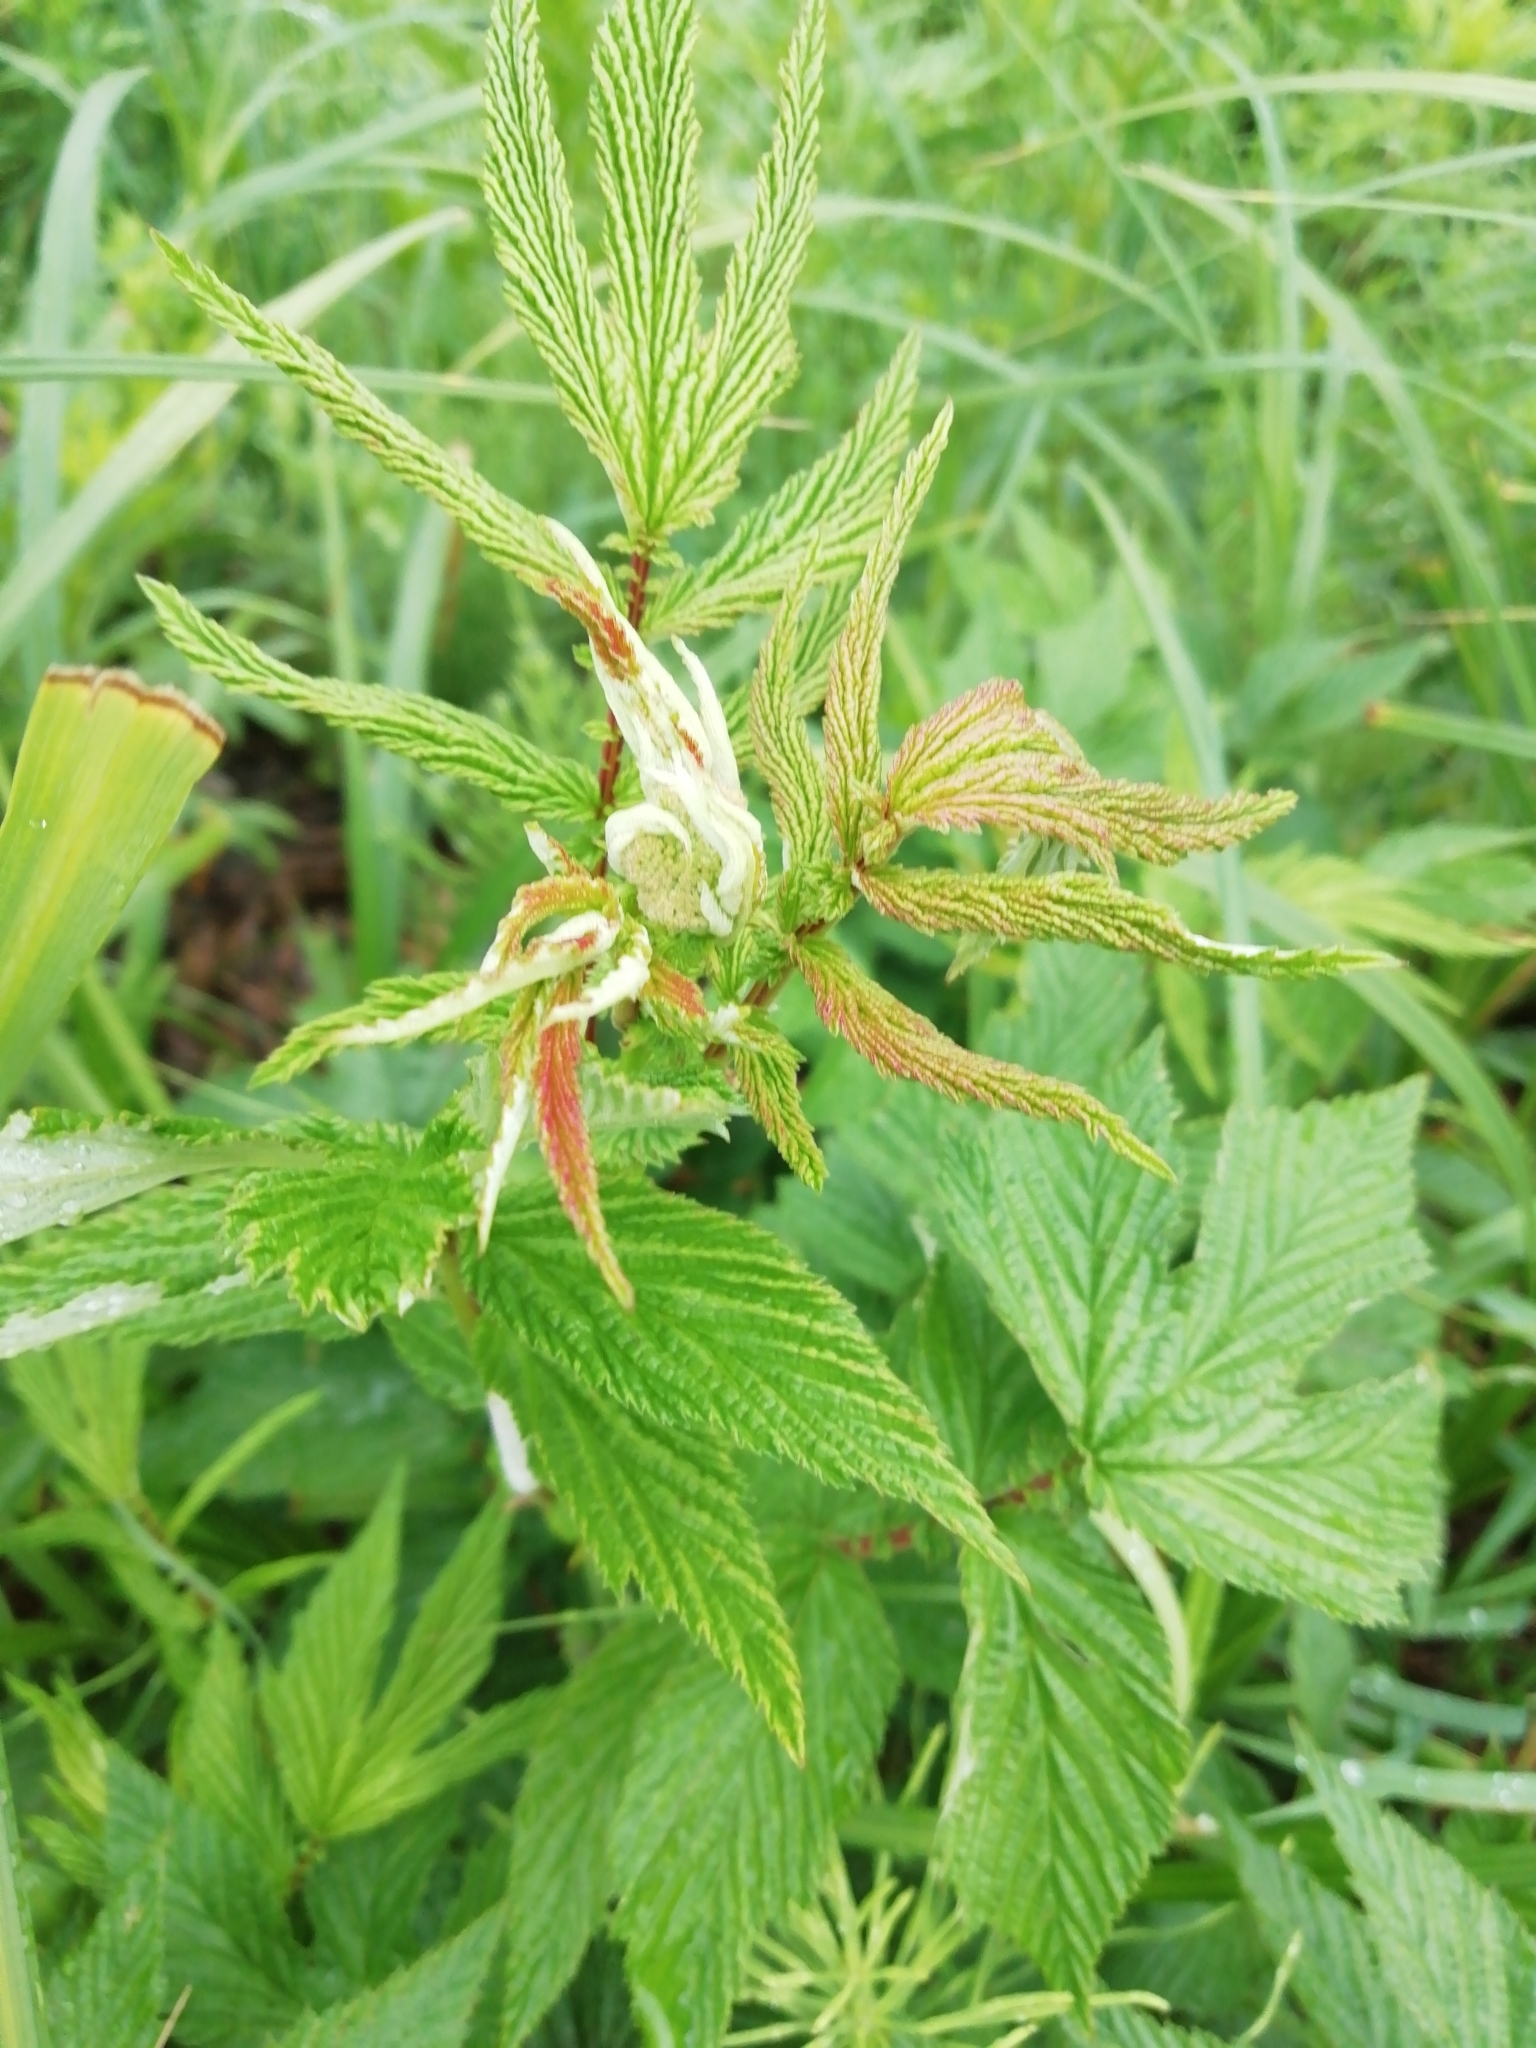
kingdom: Plantae
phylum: Tracheophyta
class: Magnoliopsida
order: Rosales
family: Rosaceae
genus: Filipendula
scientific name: Filipendula ulmaria
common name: Meadowsweet
